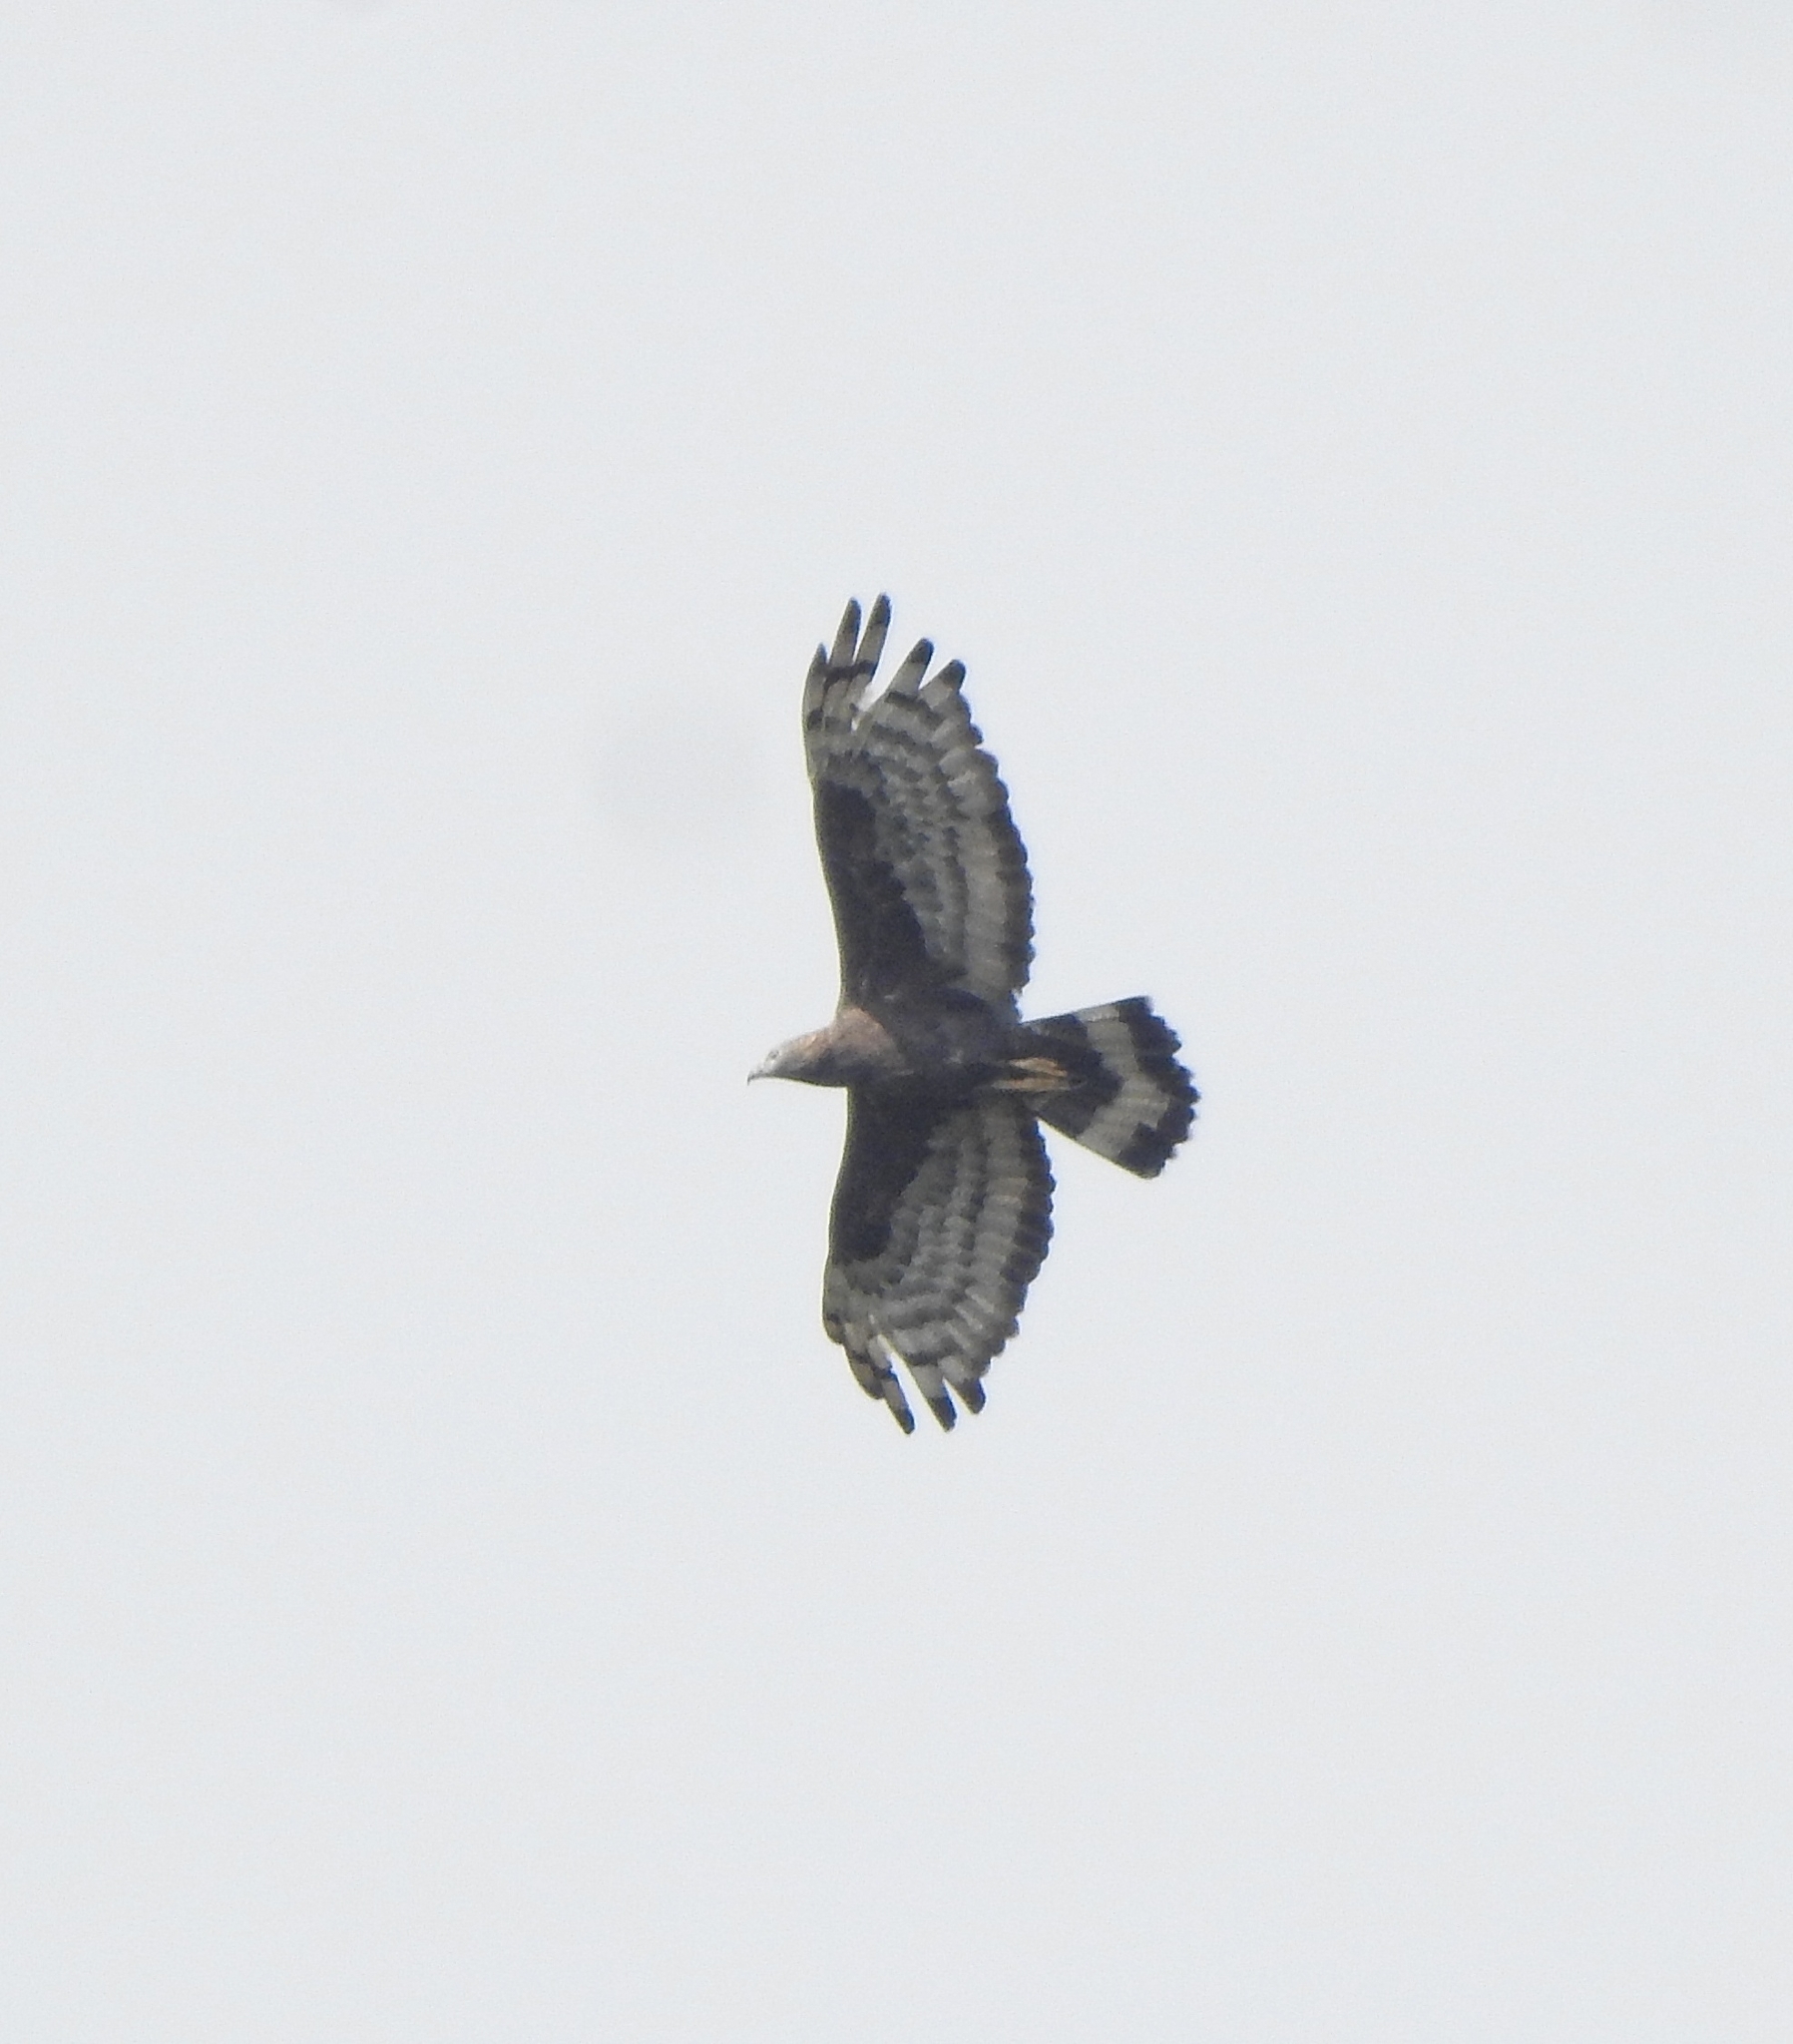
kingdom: Animalia
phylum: Chordata
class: Aves
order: Accipitriformes
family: Accipitridae
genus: Pernis
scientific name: Pernis ptilorhynchus
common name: Crested honey buzzard
